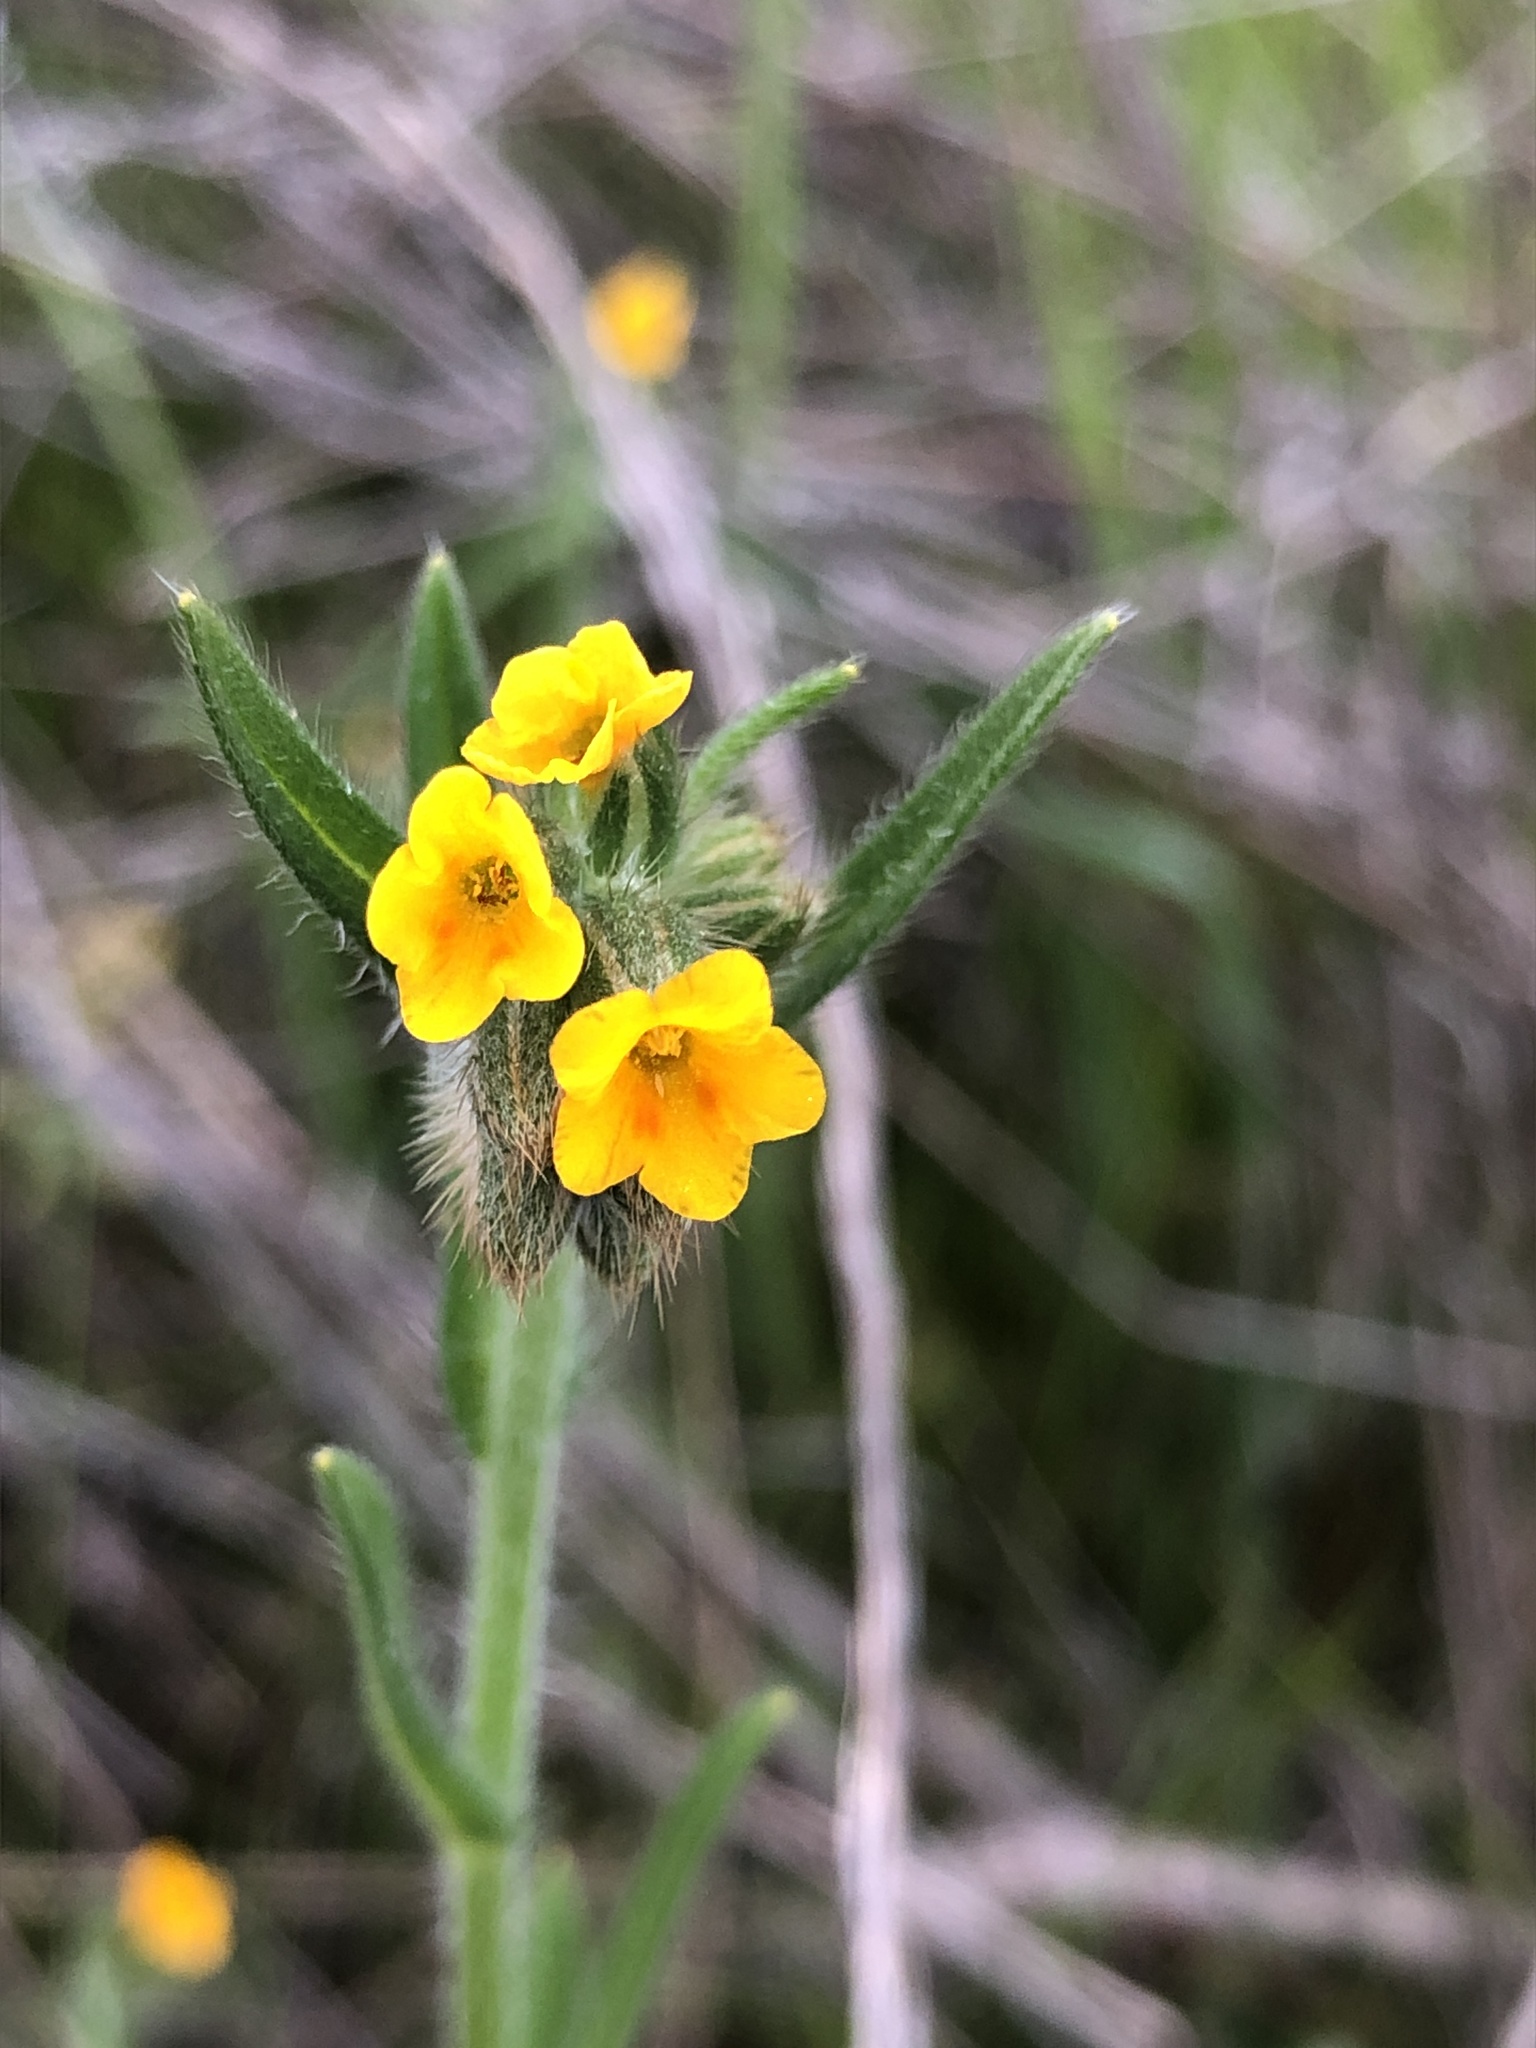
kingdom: Plantae
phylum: Tracheophyta
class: Magnoliopsida
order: Boraginales
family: Boraginaceae
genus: Amsinckia
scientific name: Amsinckia menziesii
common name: Menzies' fiddleneck
